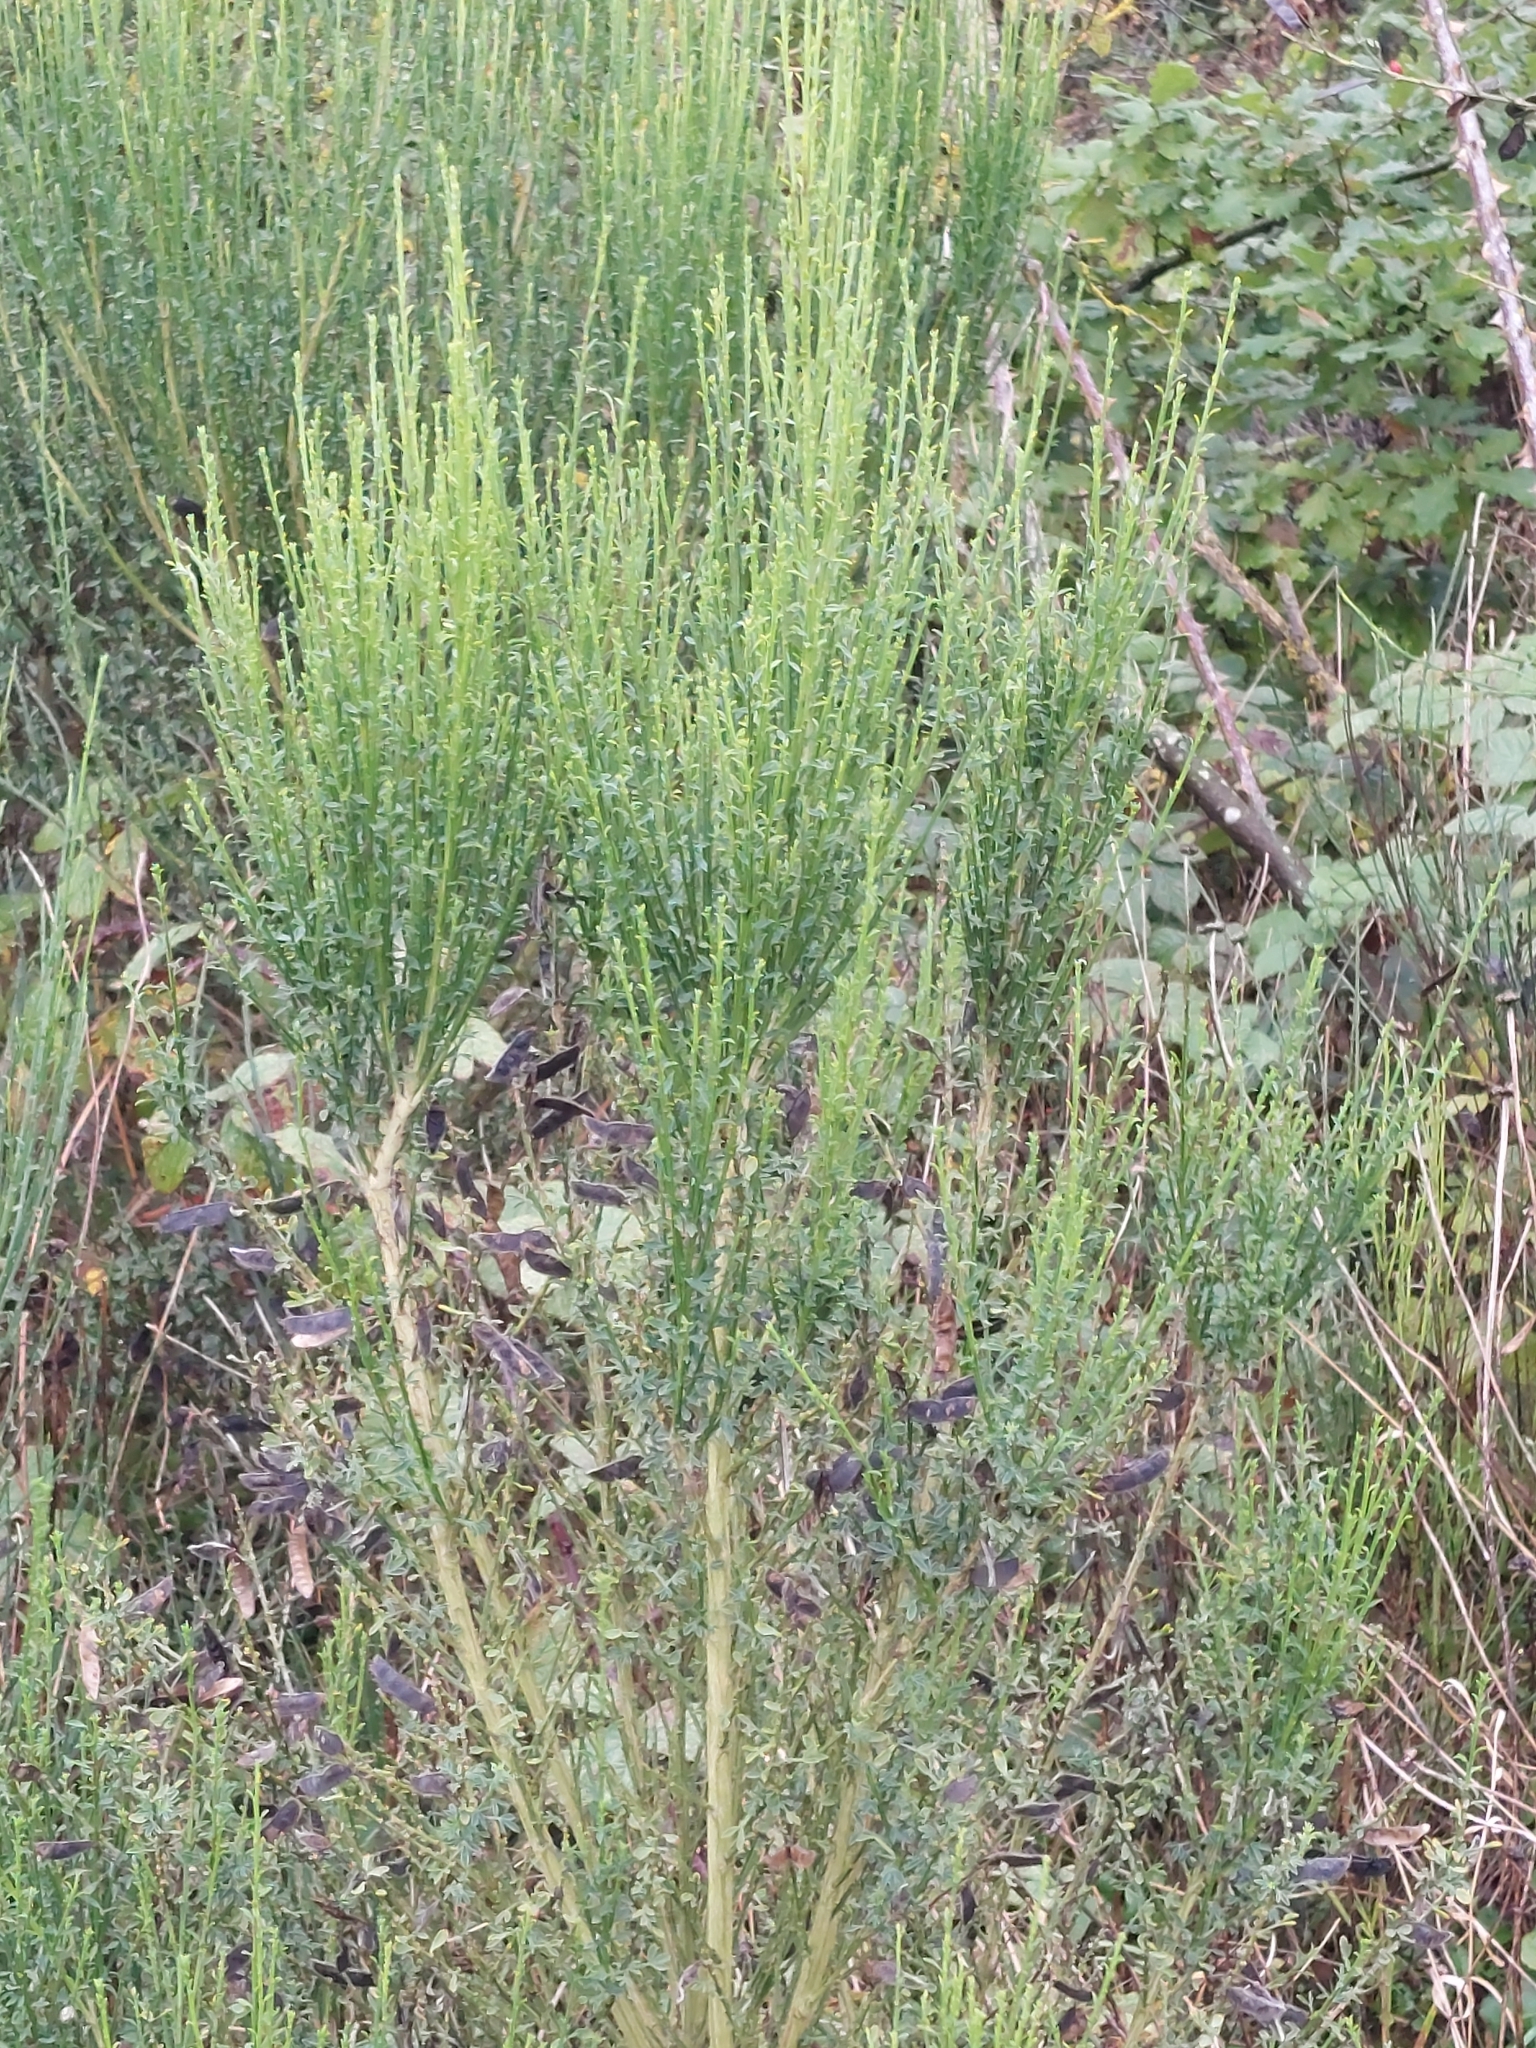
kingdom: Plantae
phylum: Tracheophyta
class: Magnoliopsida
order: Fabales
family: Fabaceae
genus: Cytisus
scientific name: Cytisus scoparius
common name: Scotch broom
